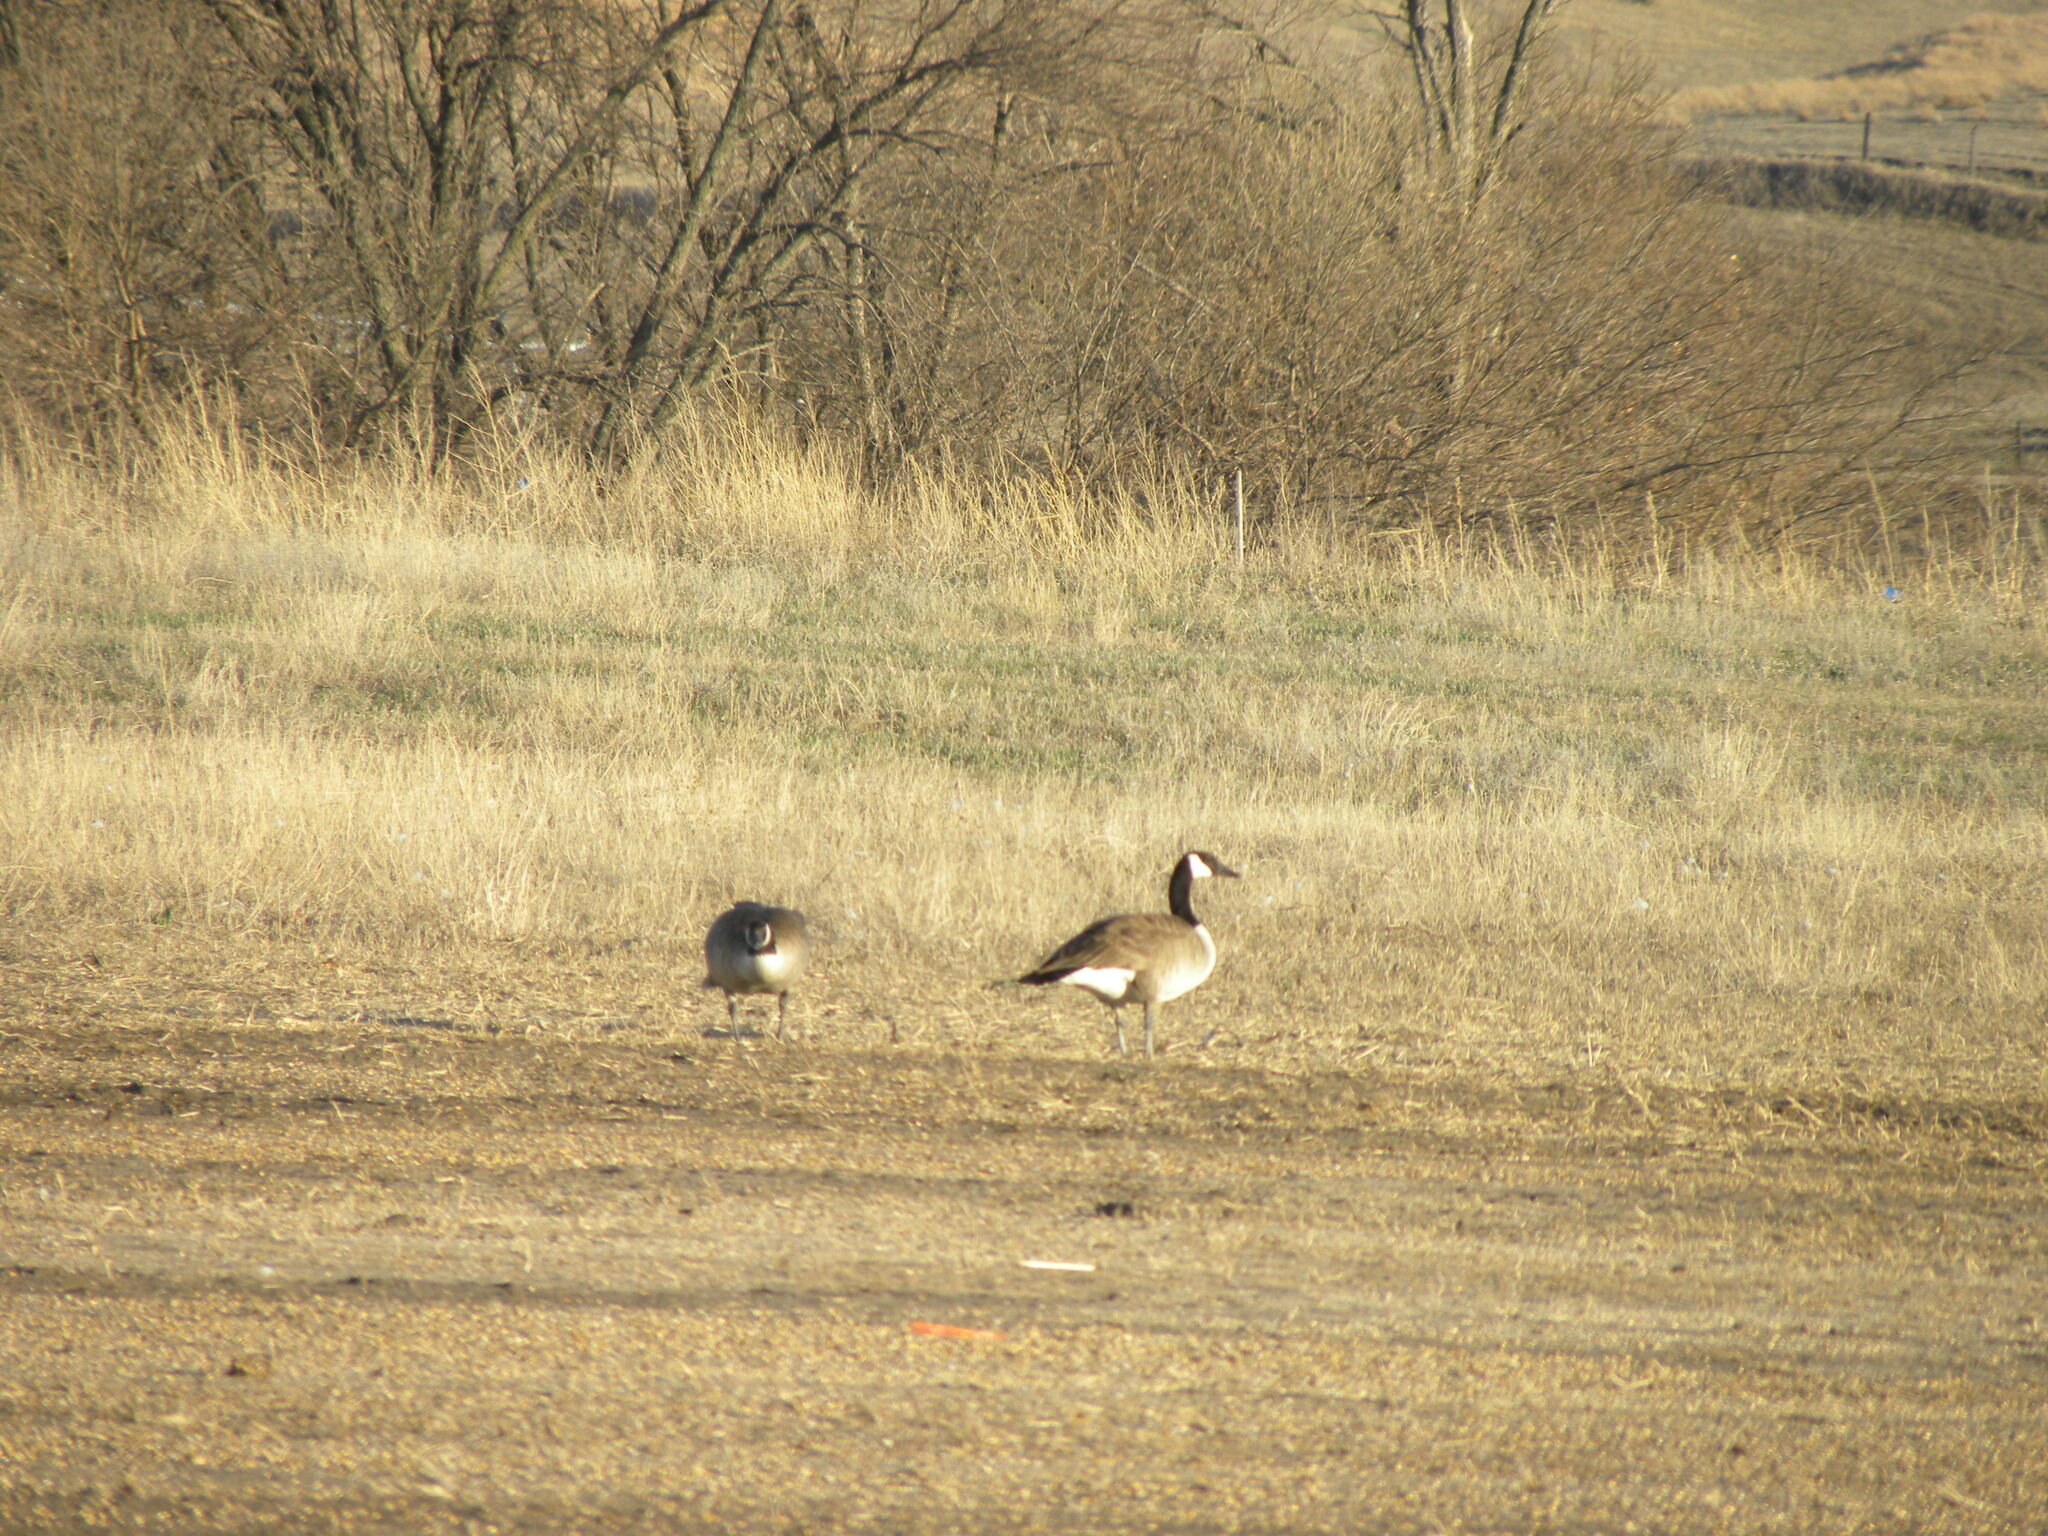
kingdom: Animalia
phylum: Chordata
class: Aves
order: Anseriformes
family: Anatidae
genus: Branta
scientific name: Branta canadensis
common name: Canada goose
